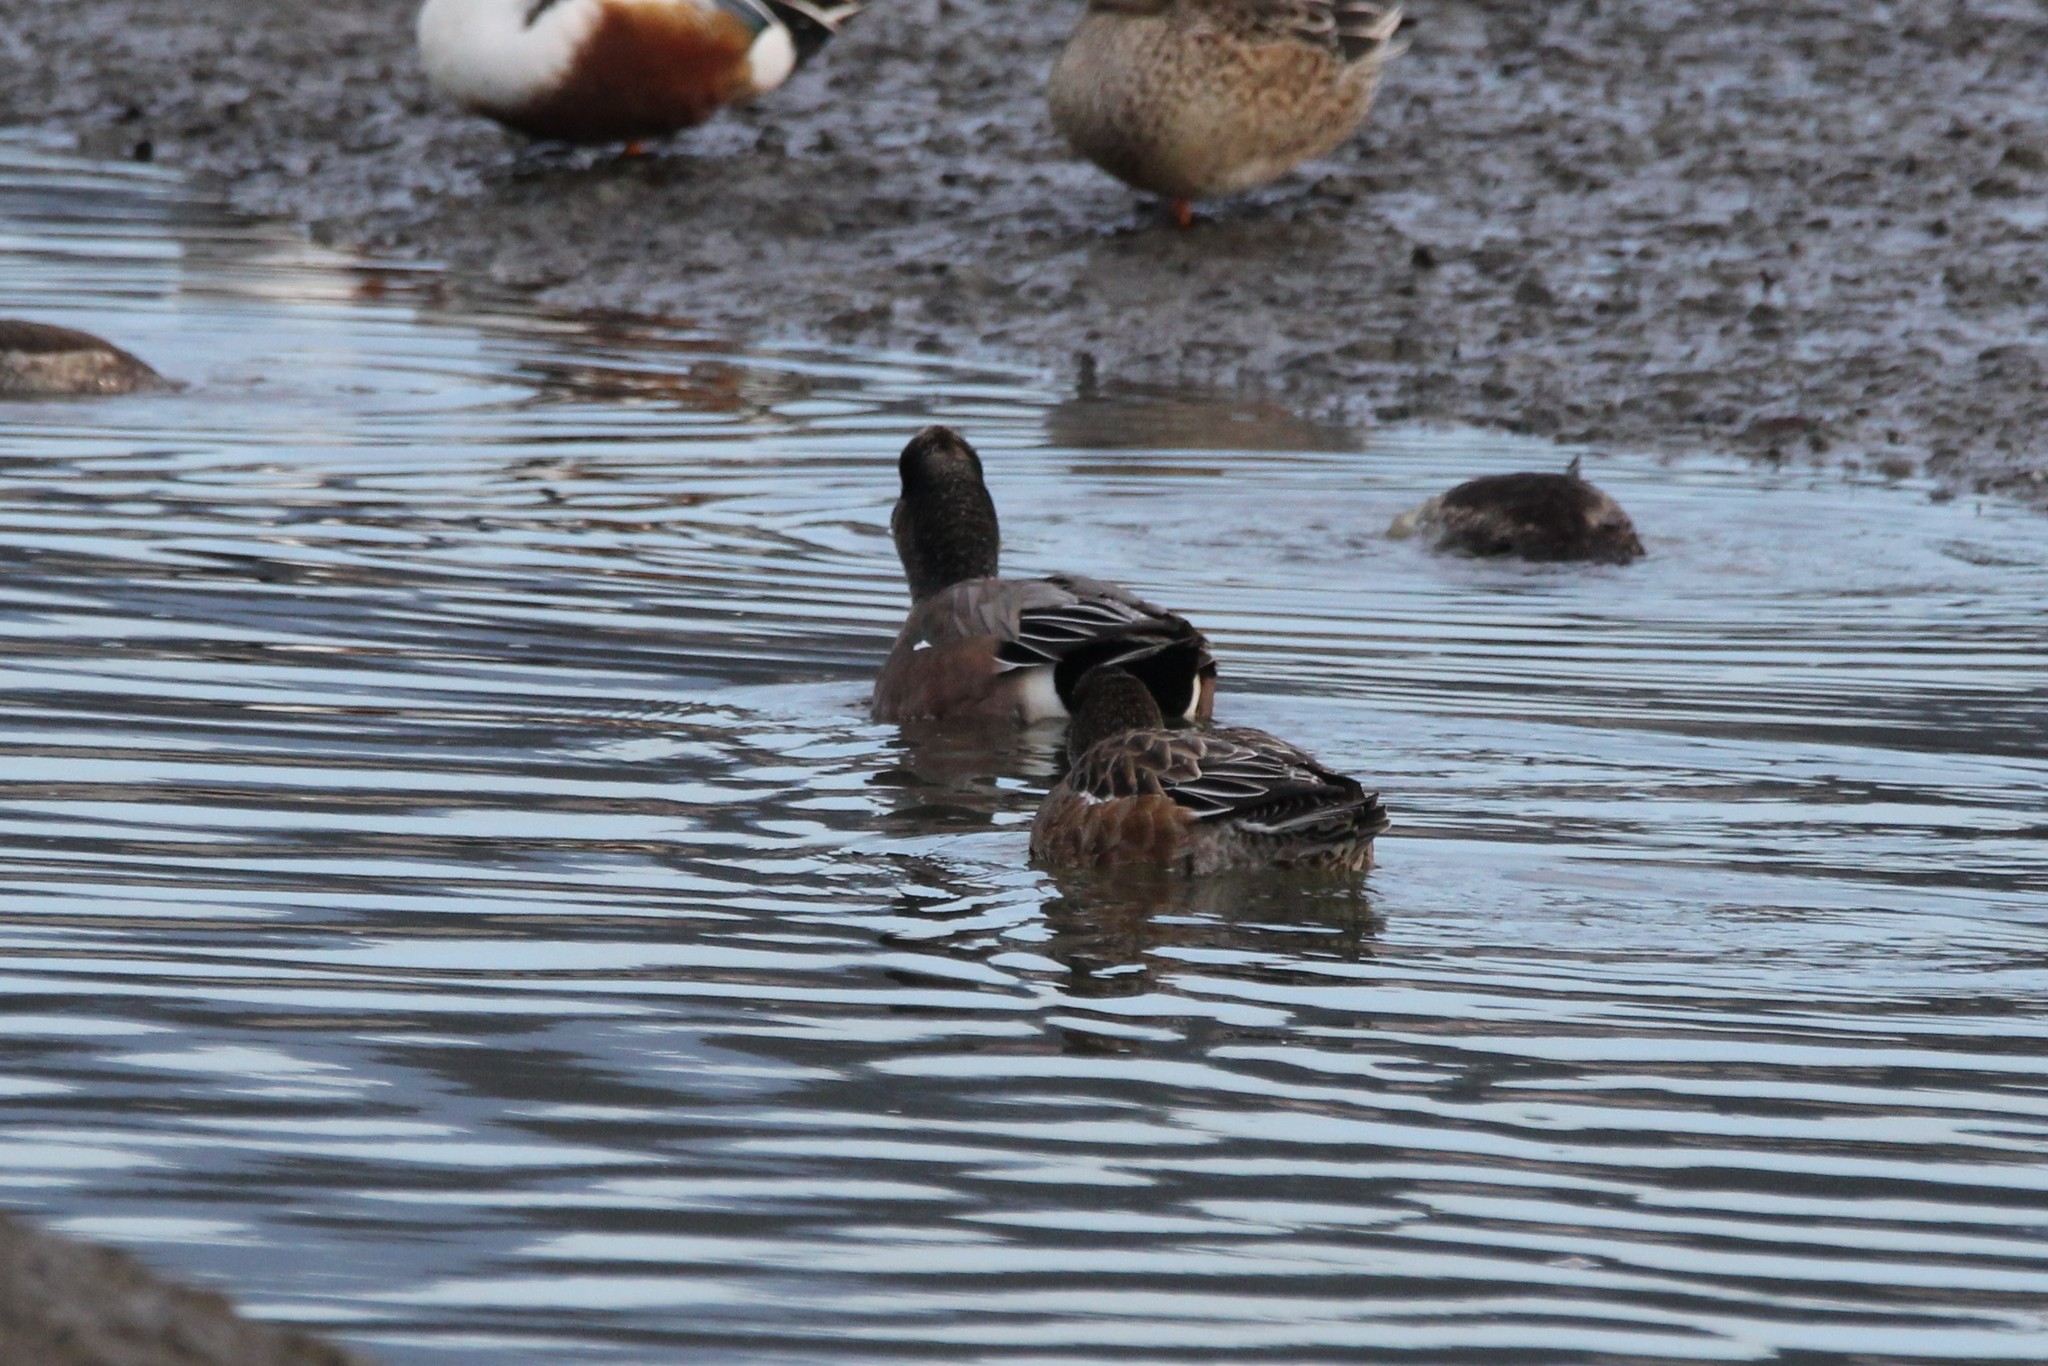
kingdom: Animalia
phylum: Chordata
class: Aves
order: Anseriformes
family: Anatidae
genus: Mareca
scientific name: Mareca americana
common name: American wigeon
